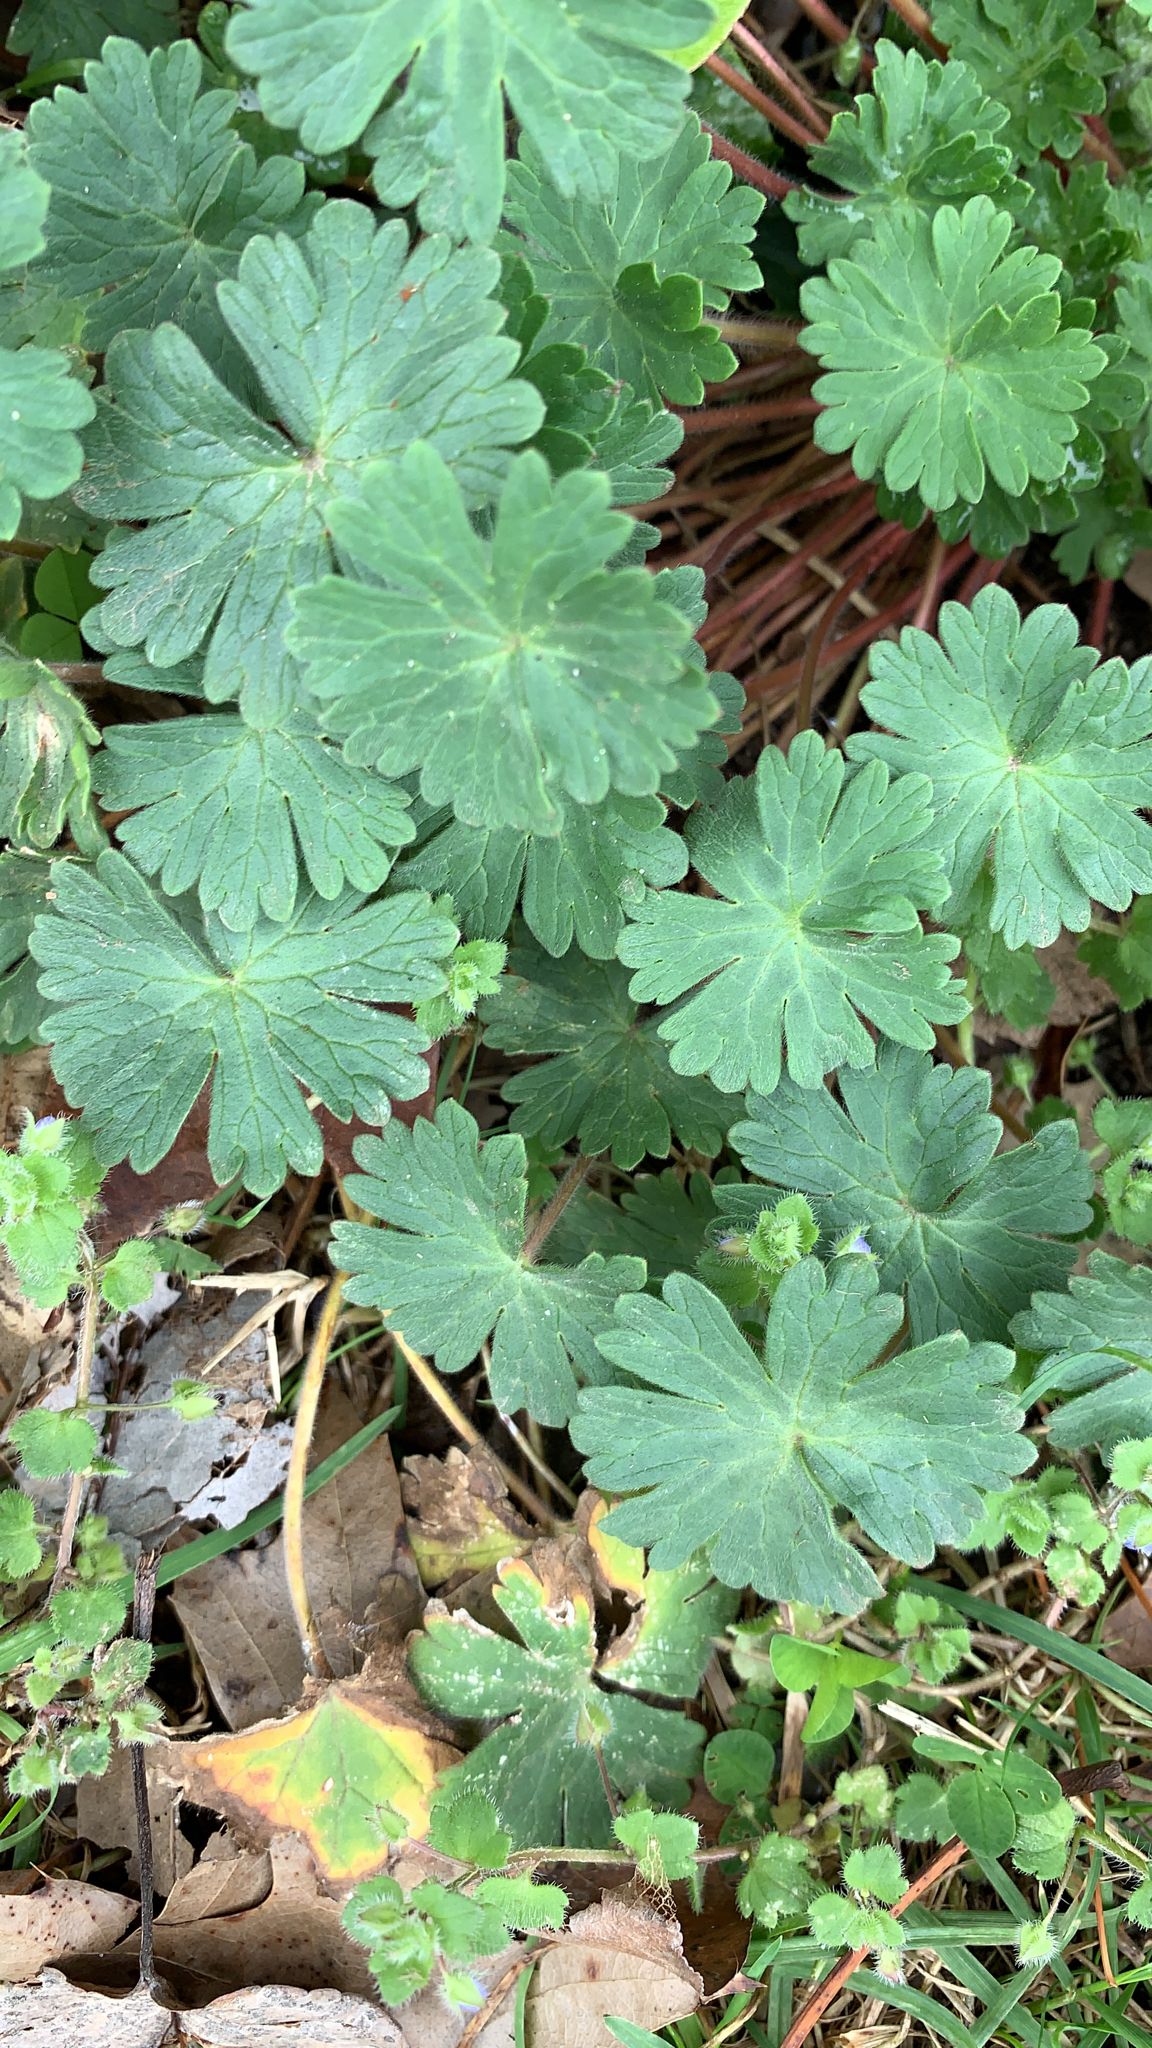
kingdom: Plantae
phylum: Tracheophyta
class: Magnoliopsida
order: Geraniales
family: Geraniaceae
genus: Geranium
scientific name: Geranium molle
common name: Dove's-foot crane's-bill
